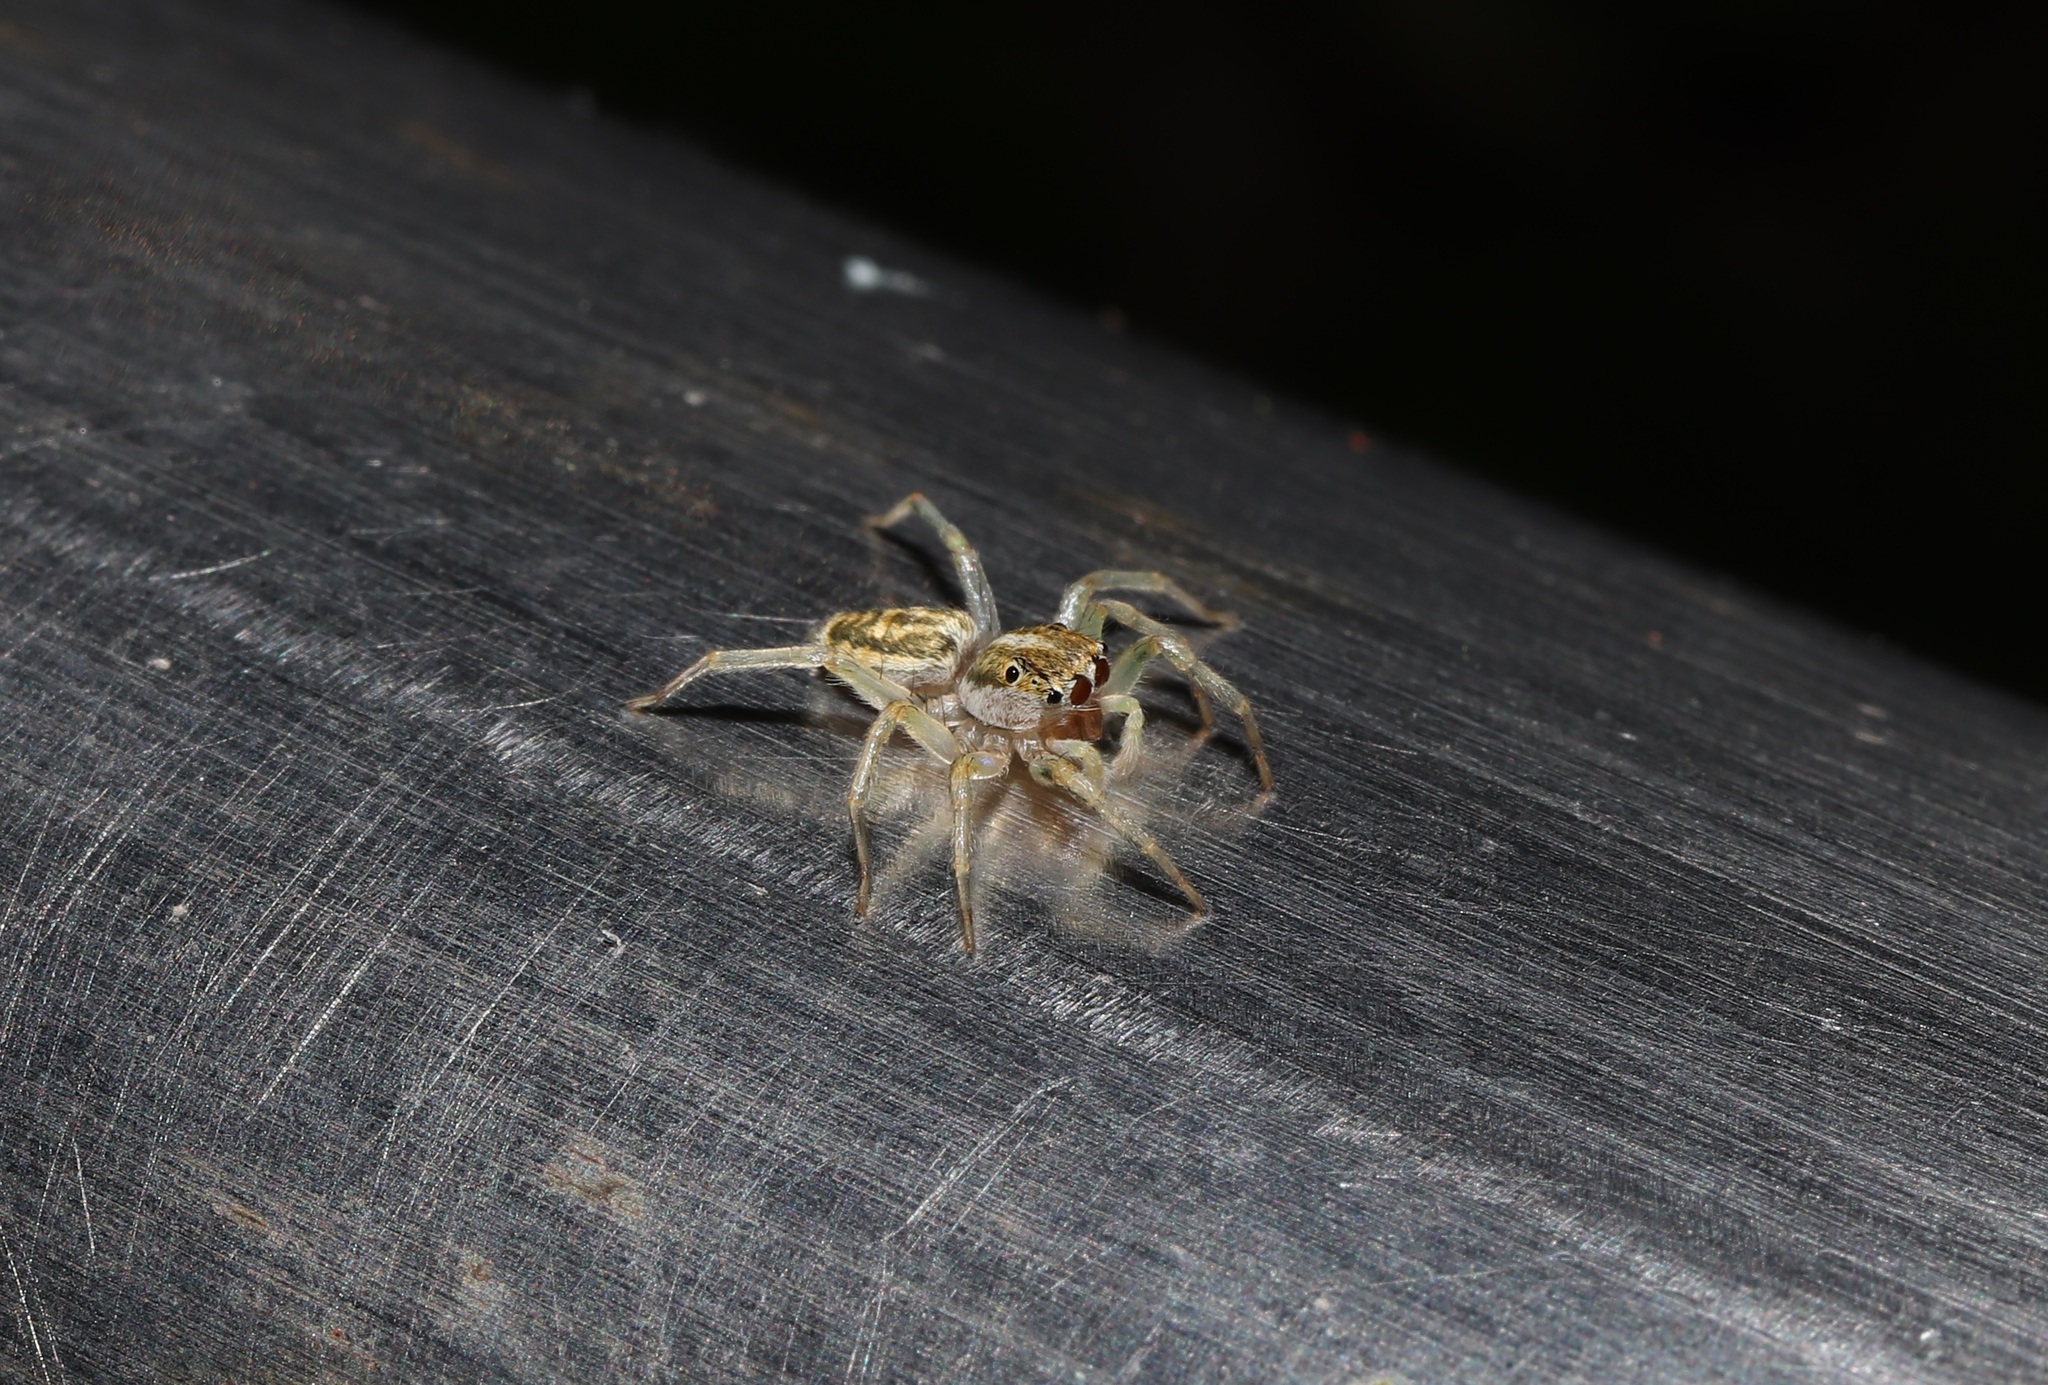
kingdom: Animalia
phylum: Arthropoda
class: Arachnida
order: Araneae
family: Salticidae
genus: Phintella
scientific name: Phintella abnormis
